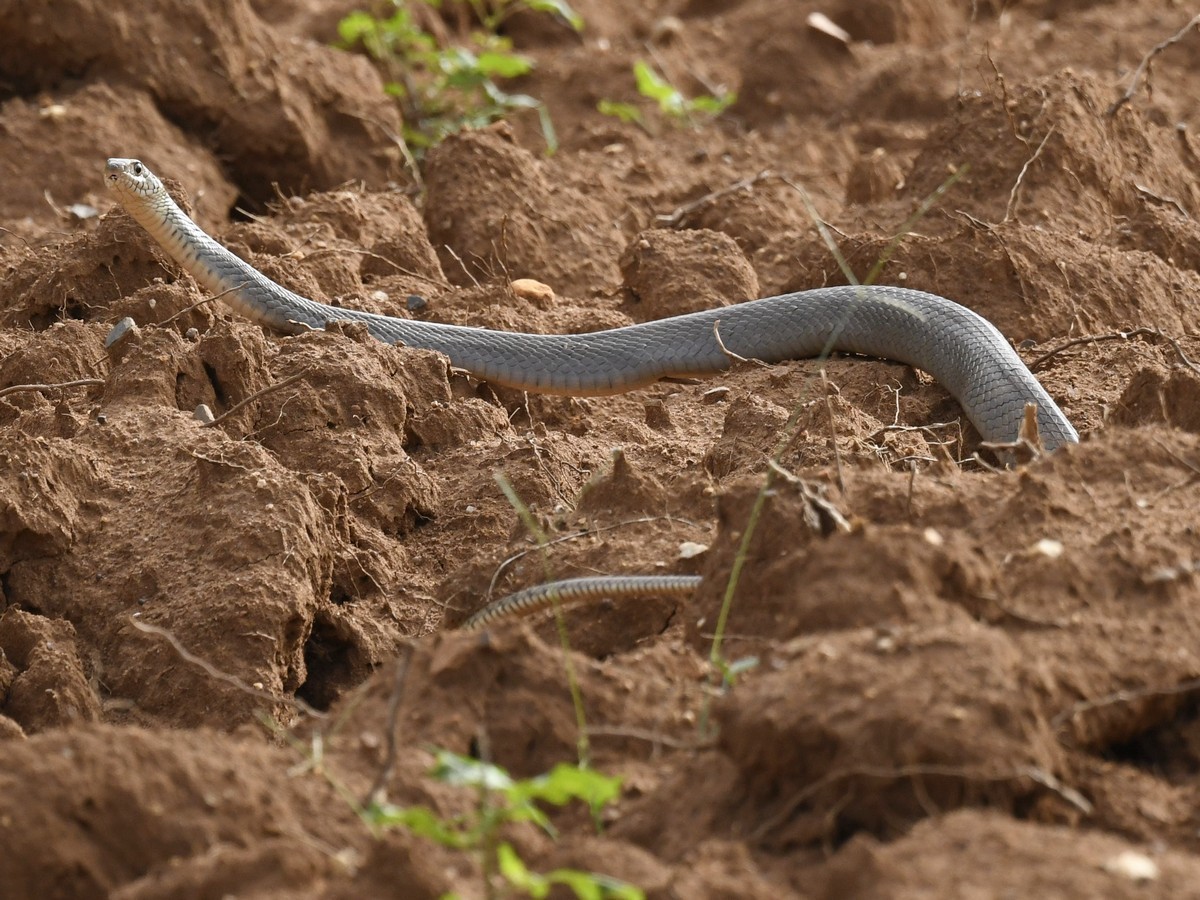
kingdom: Animalia
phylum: Chordata
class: Squamata
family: Colubridae
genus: Ptyas
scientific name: Ptyas mucosa
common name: Oriental ratsnake
